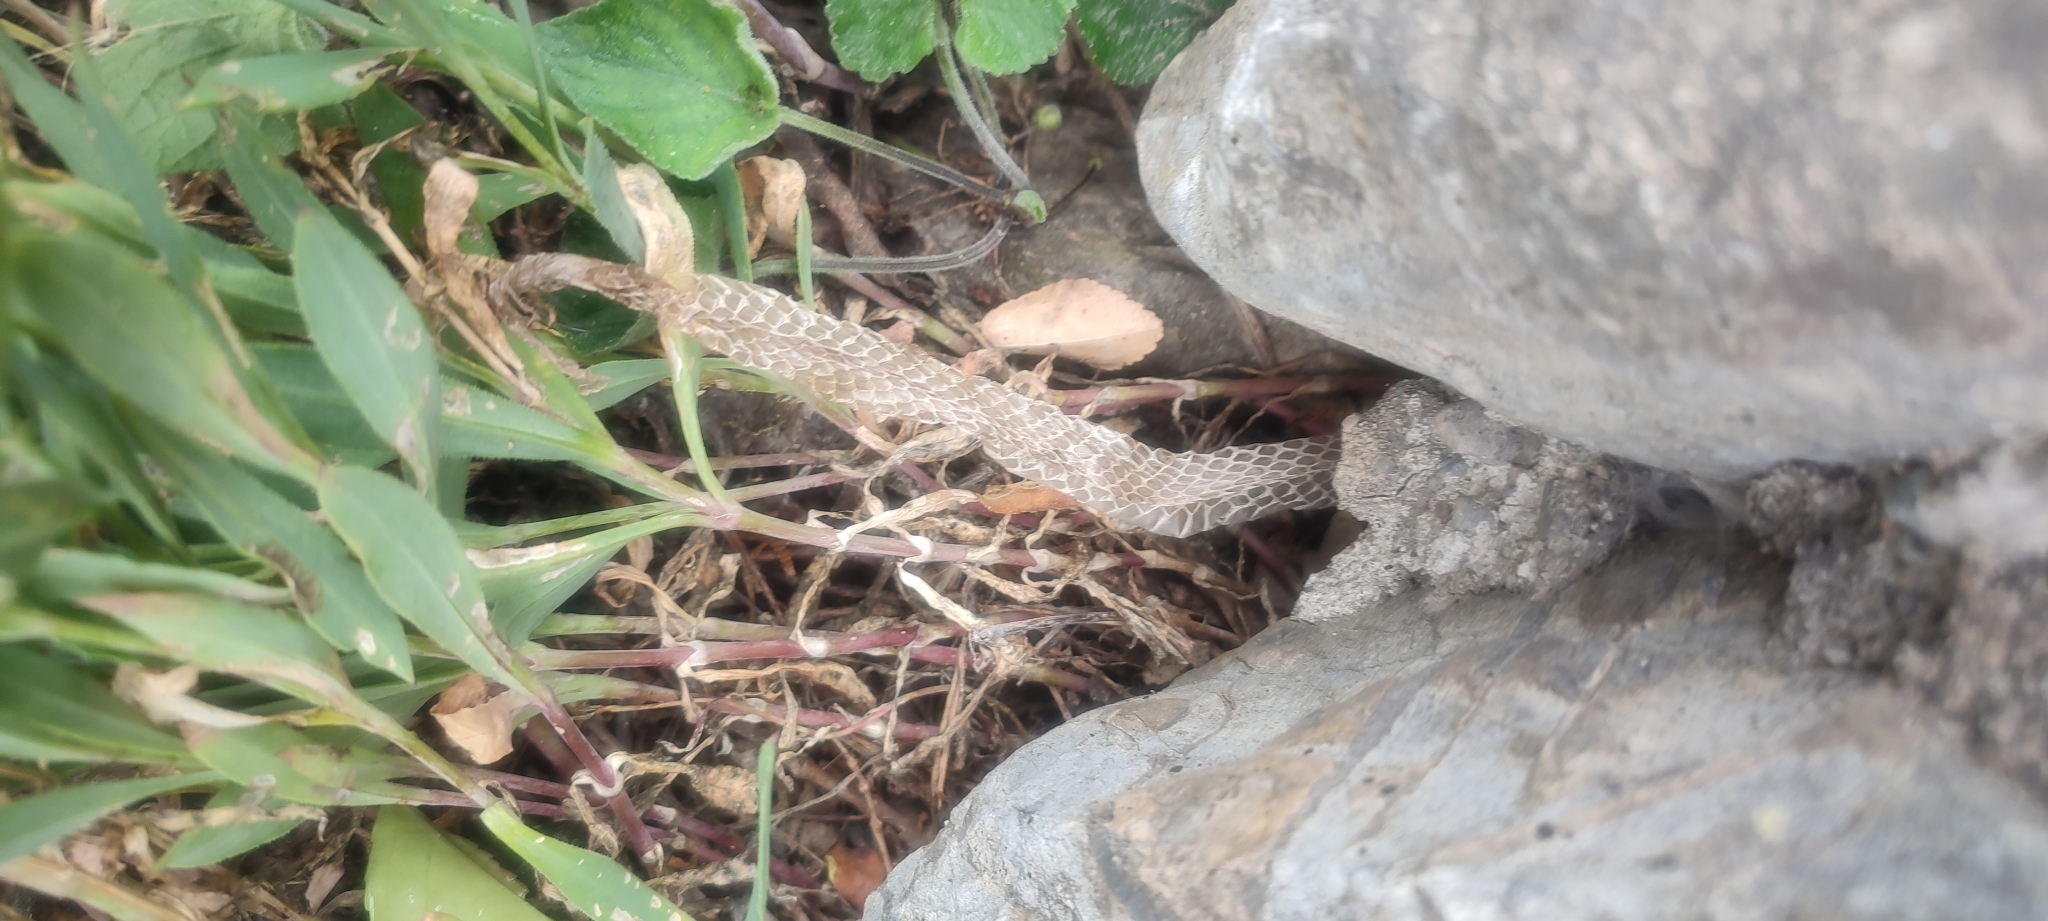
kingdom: Animalia
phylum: Chordata
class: Squamata
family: Colubridae
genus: Natrix
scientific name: Natrix maura
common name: Viperine water snake
